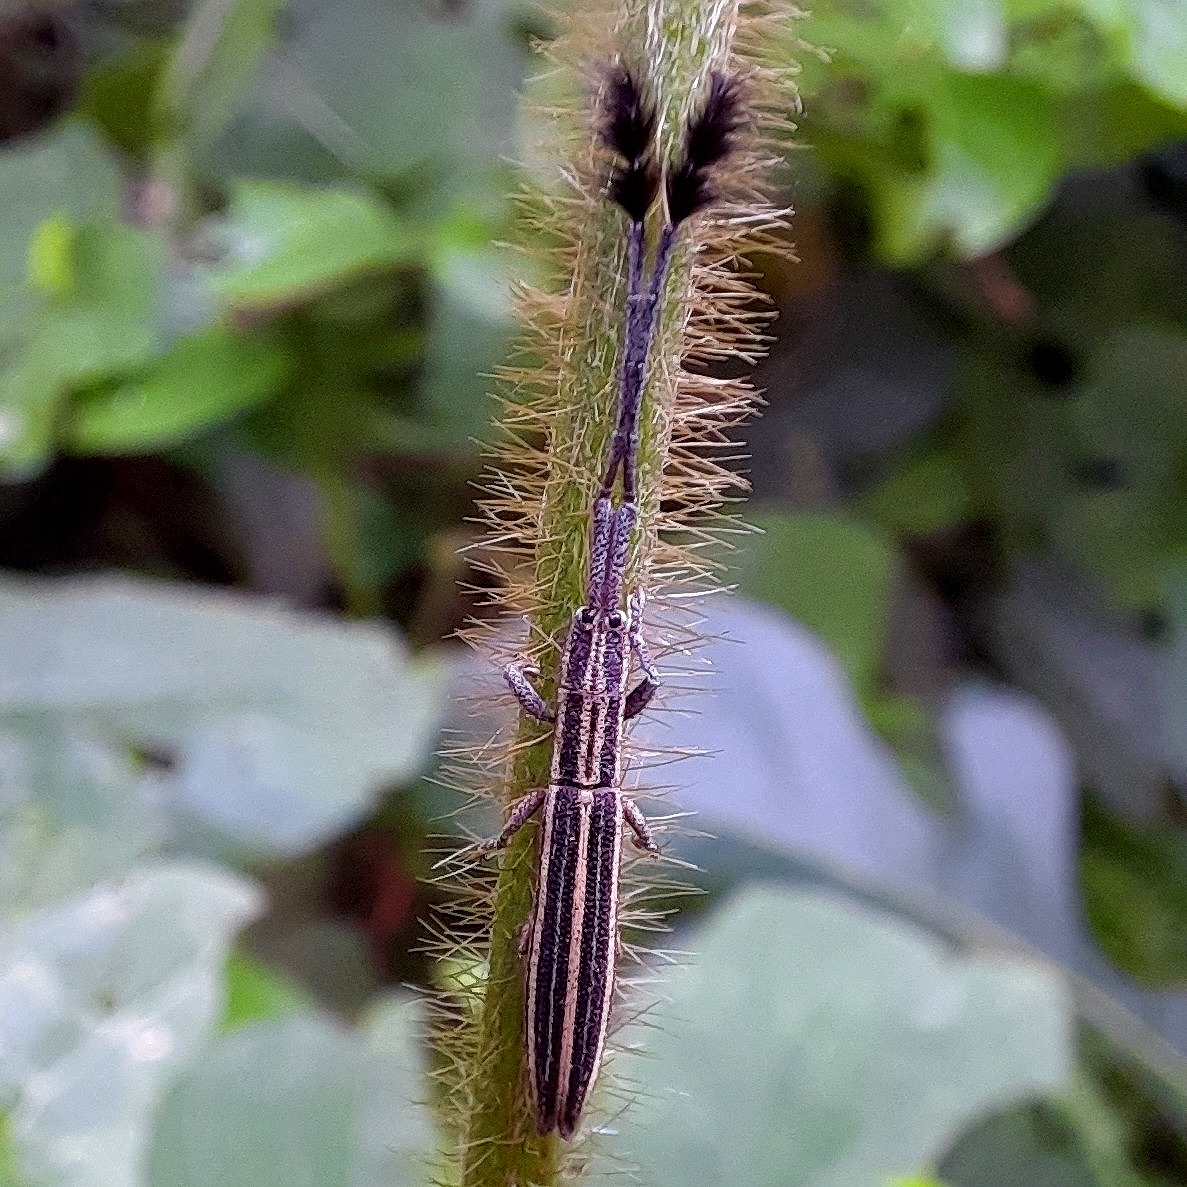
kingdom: Animalia
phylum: Arthropoda
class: Insecta
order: Coleoptera
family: Cerambycidae
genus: Eucomatocera
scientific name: Eucomatocera vittata
